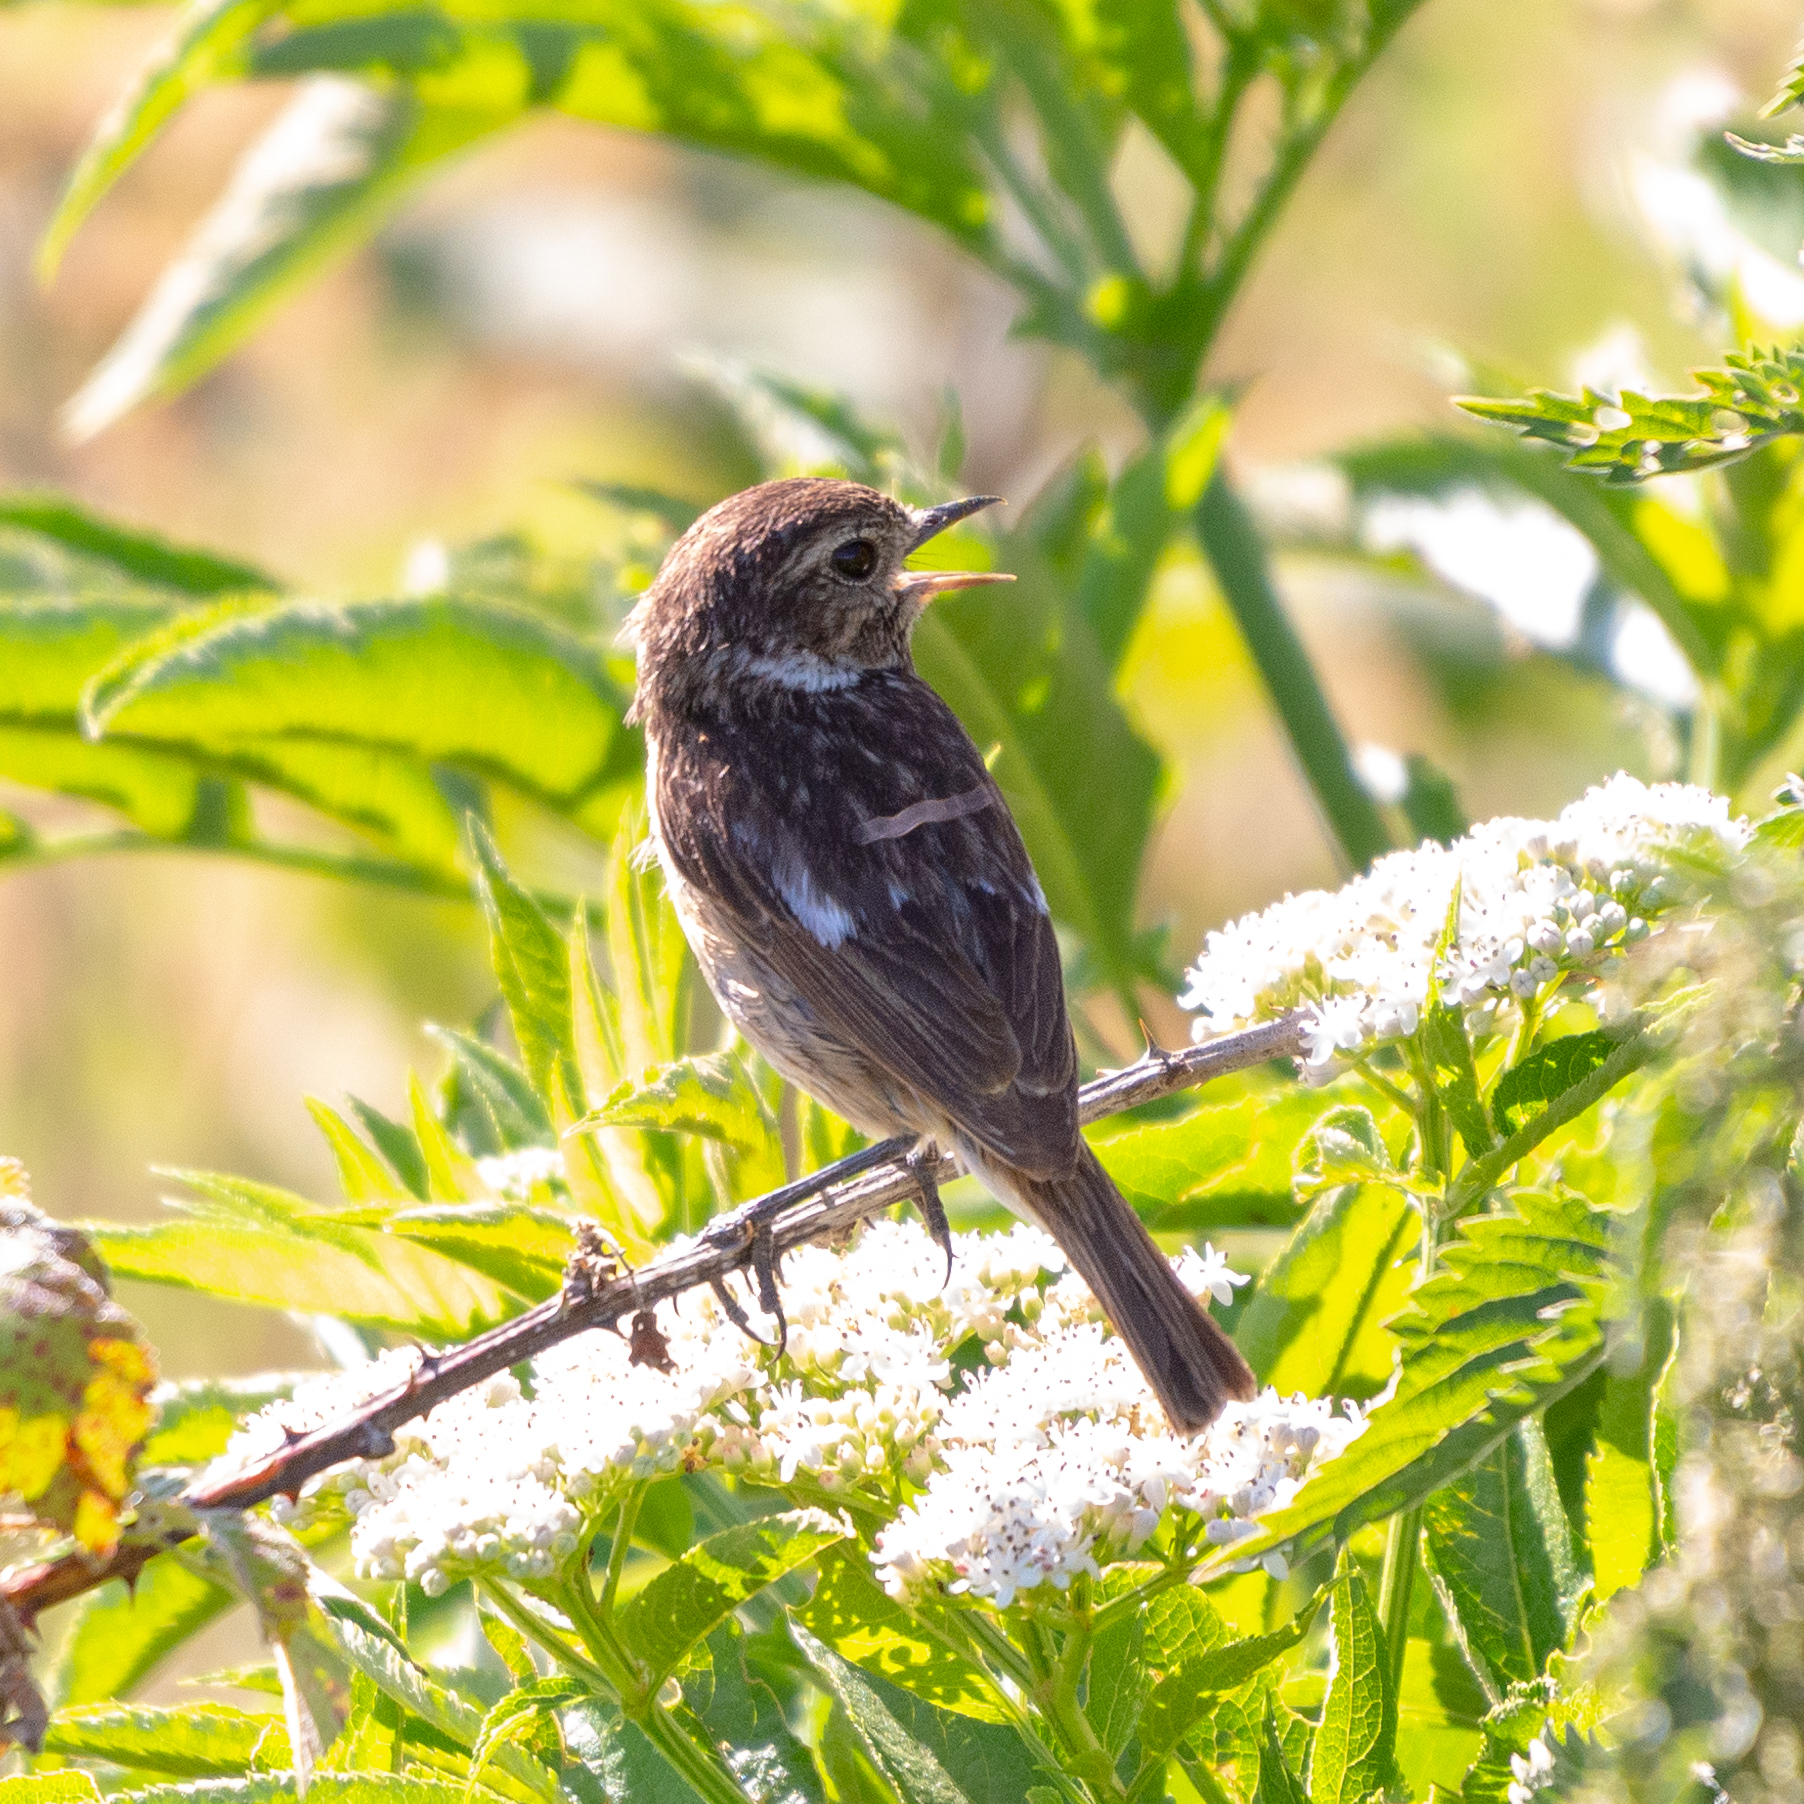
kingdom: Animalia
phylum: Chordata
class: Aves
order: Passeriformes
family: Muscicapidae
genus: Saxicola
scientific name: Saxicola rubicola
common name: European stonechat
